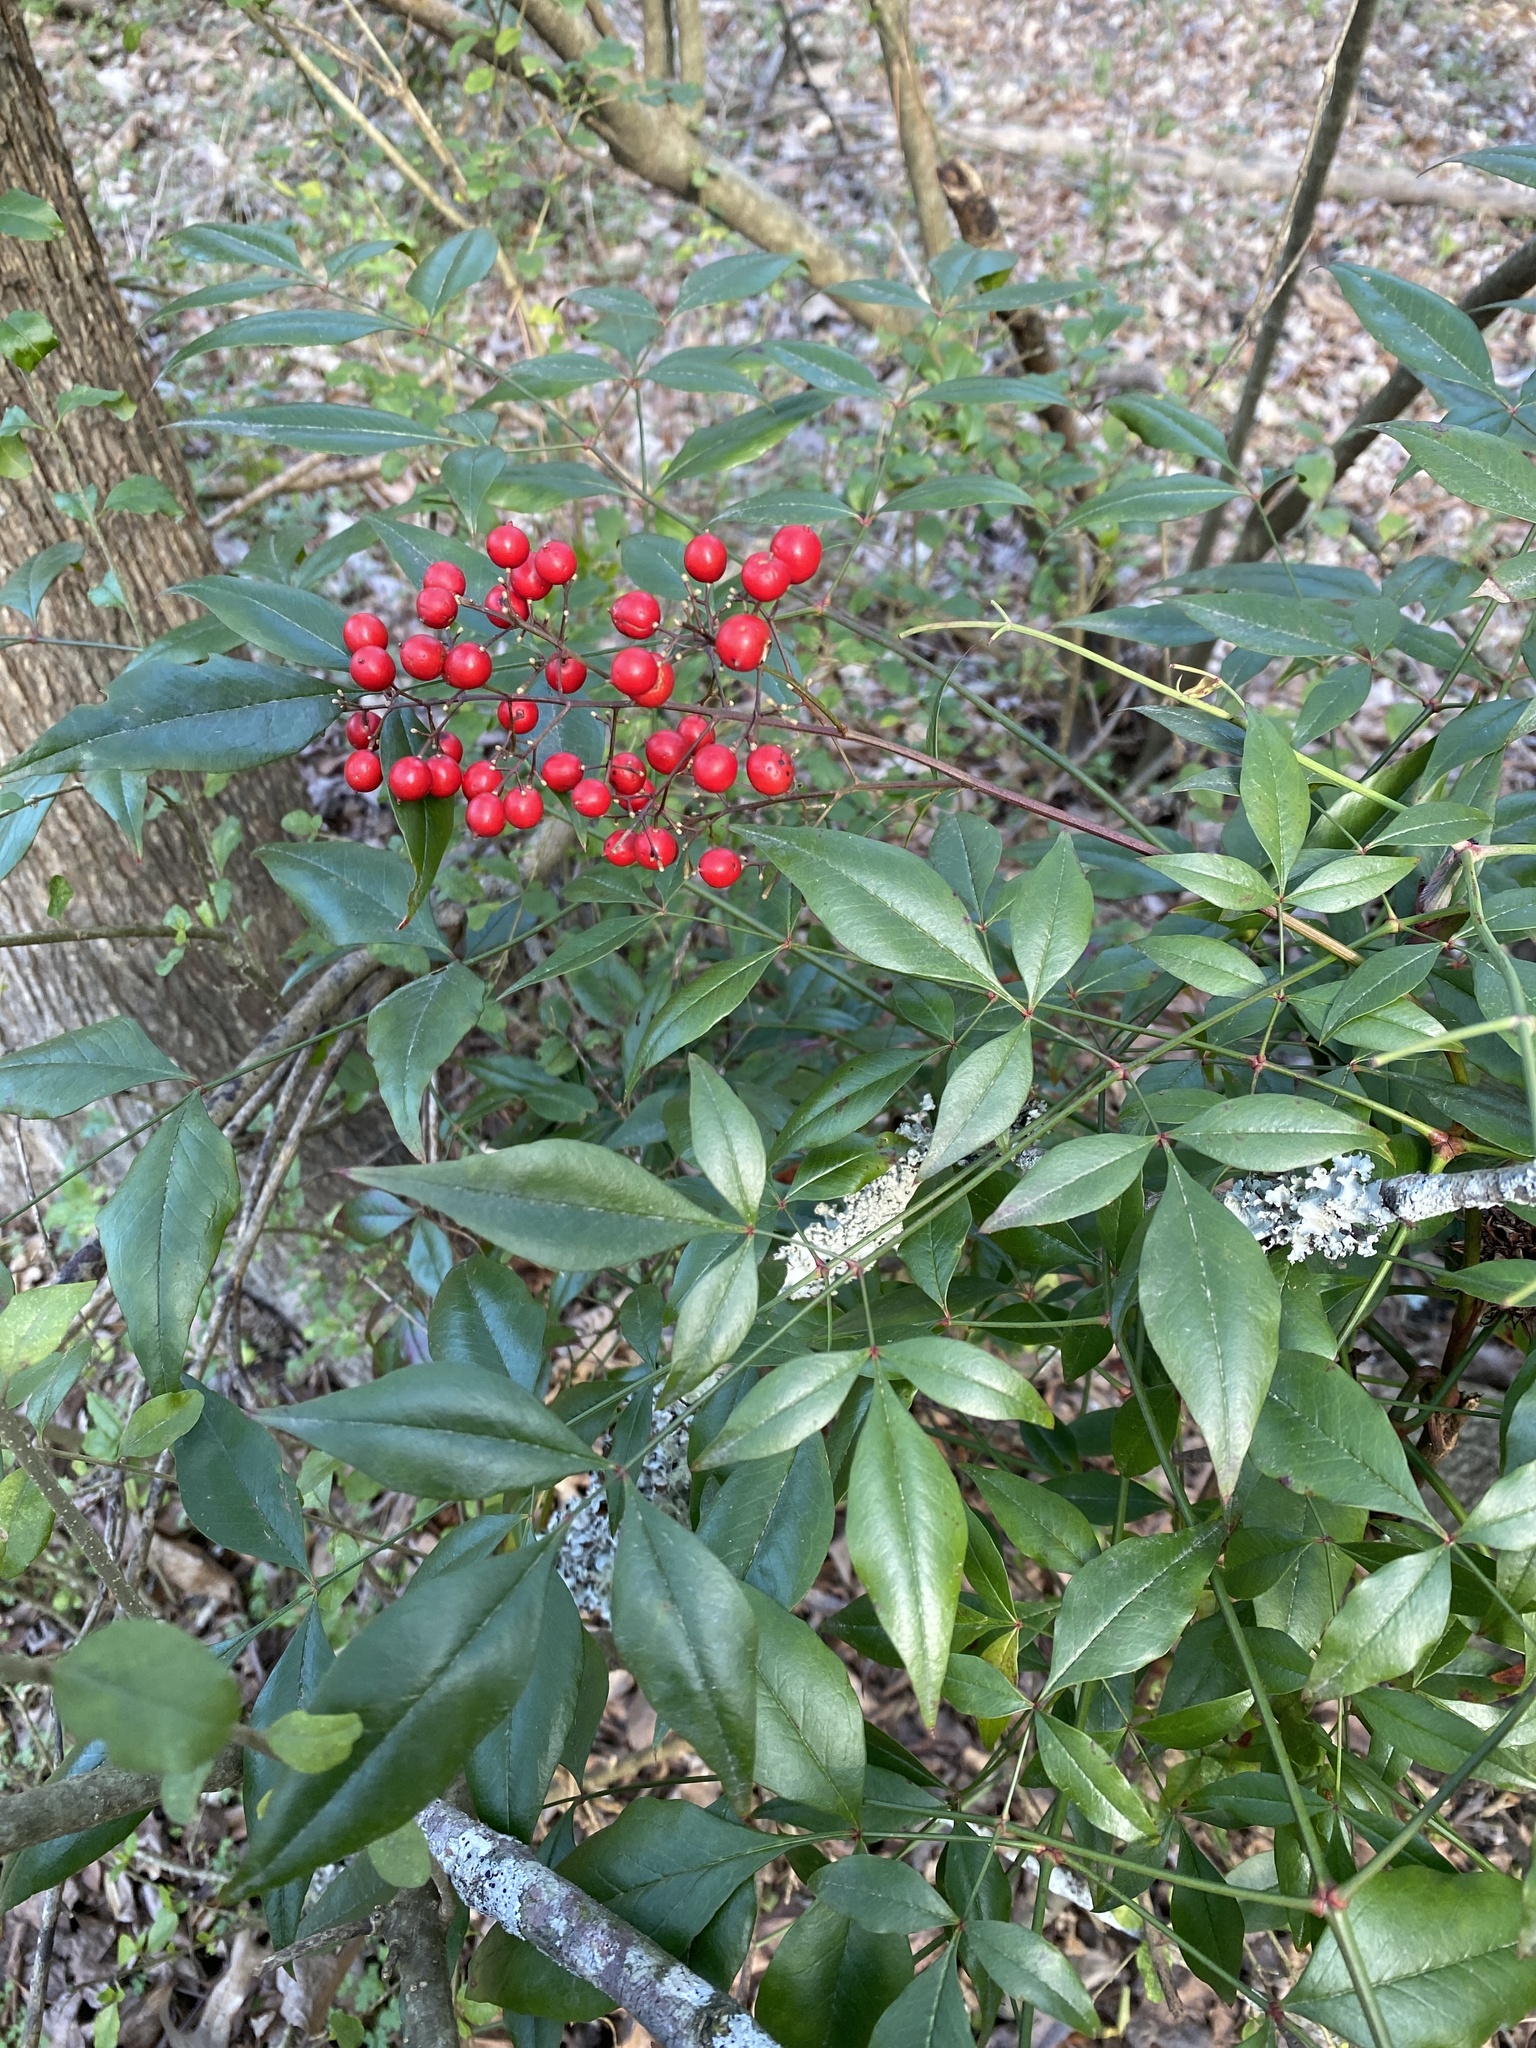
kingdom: Plantae
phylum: Tracheophyta
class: Magnoliopsida
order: Ranunculales
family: Berberidaceae
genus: Nandina
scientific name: Nandina domestica
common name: Sacred bamboo
